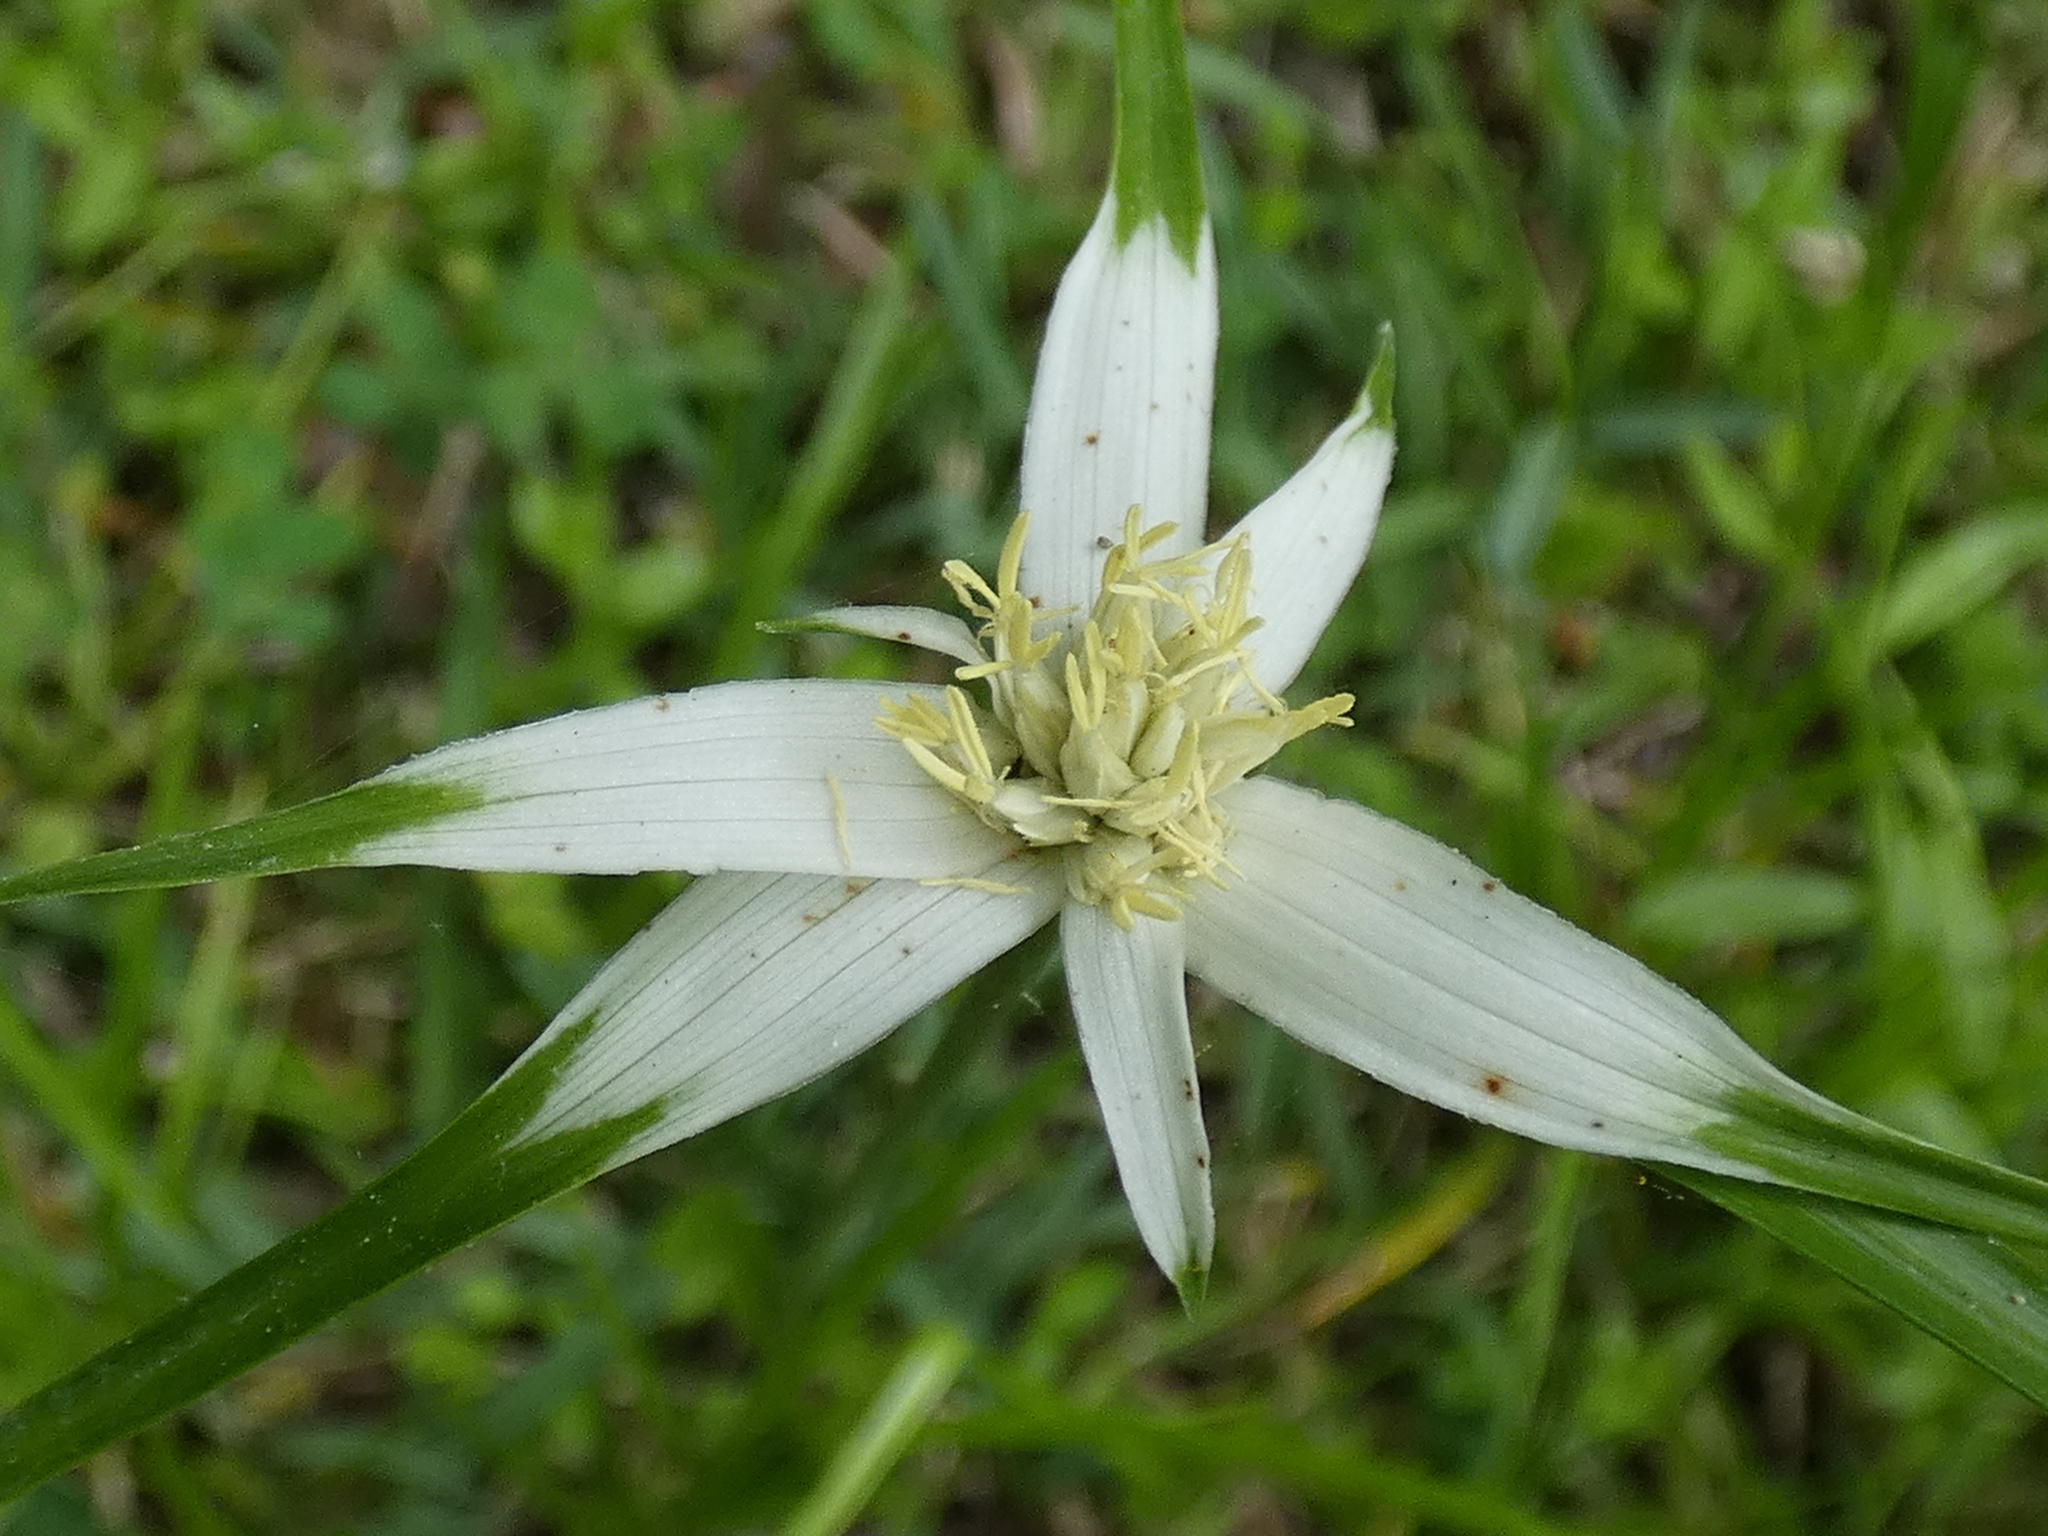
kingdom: Plantae
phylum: Tracheophyta
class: Liliopsida
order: Poales
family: Cyperaceae
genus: Rhynchospora
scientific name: Rhynchospora colorata
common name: Star sedge
